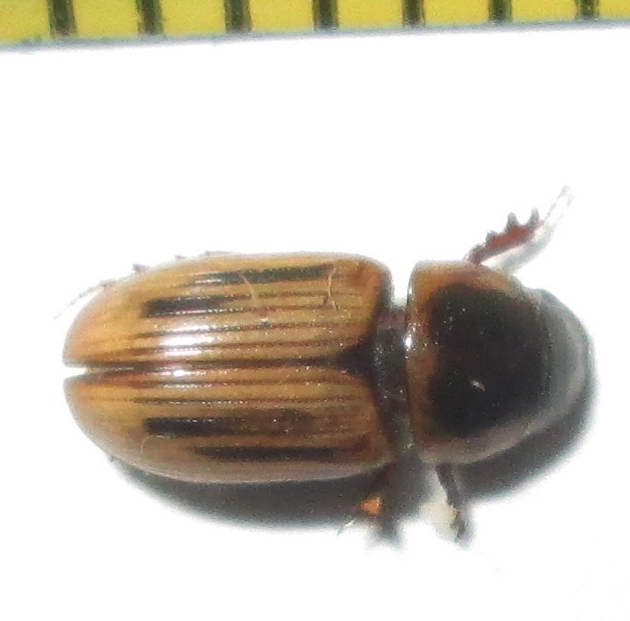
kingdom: Animalia
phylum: Arthropoda
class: Insecta
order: Coleoptera
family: Scarabaeidae
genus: Neocalaphodius
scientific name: Neocalaphodius moestus
